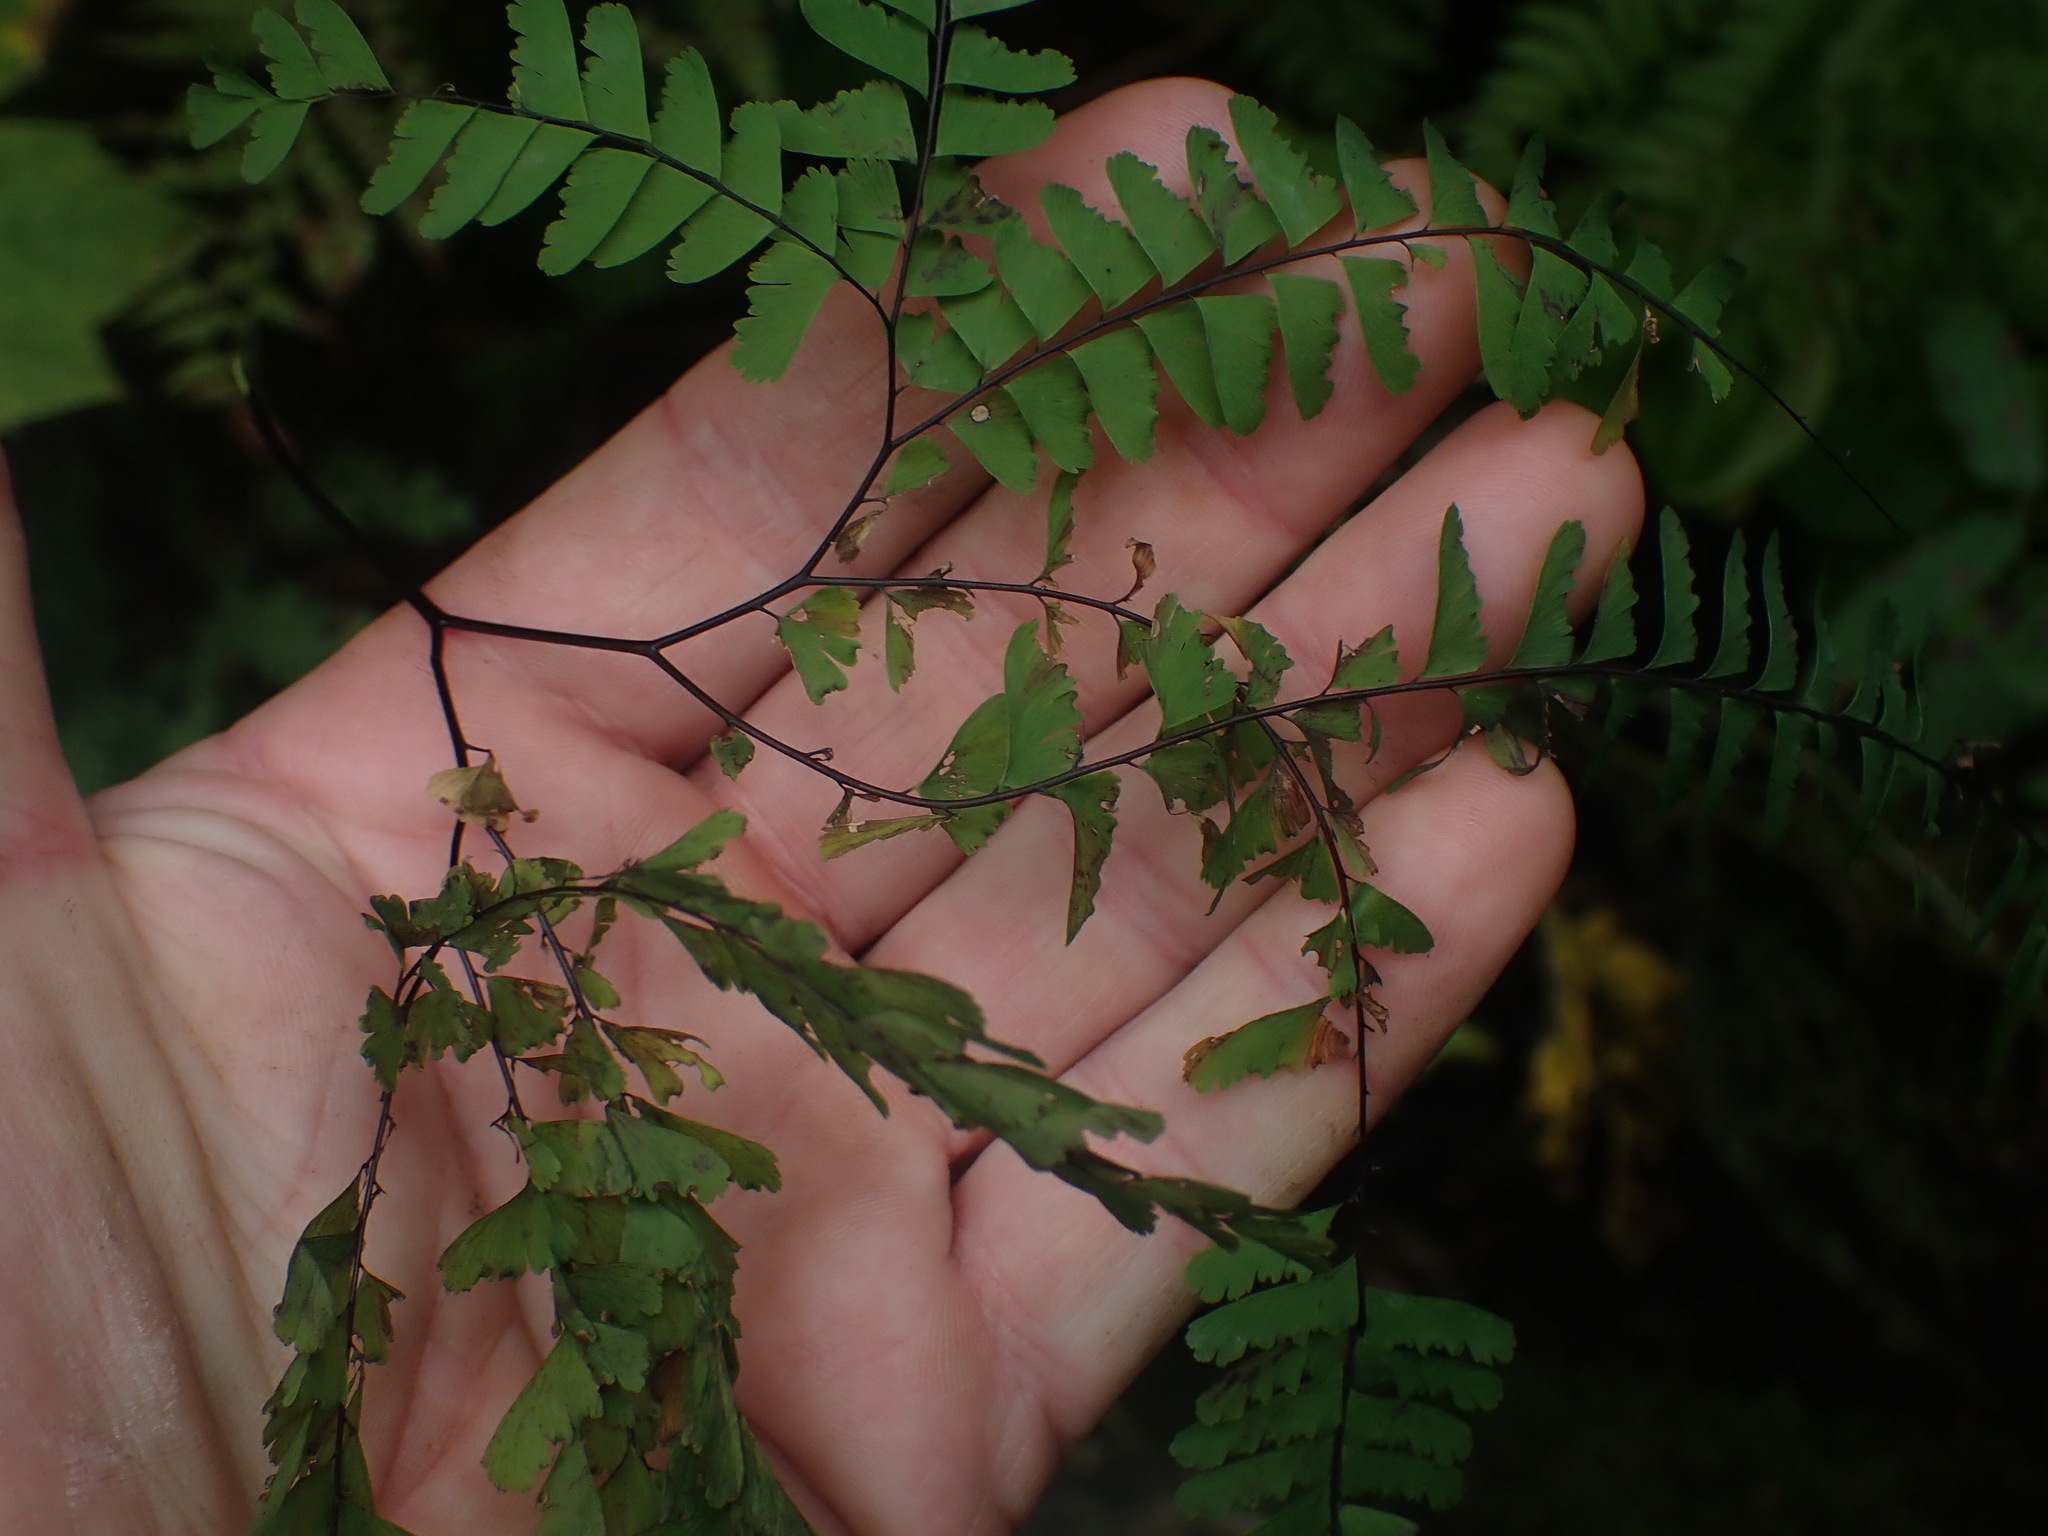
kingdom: Plantae
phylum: Tracheophyta
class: Polypodiopsida
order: Polypodiales
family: Pteridaceae
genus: Adiantum
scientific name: Adiantum aleuticum
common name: Aleutian maidenhair fern
